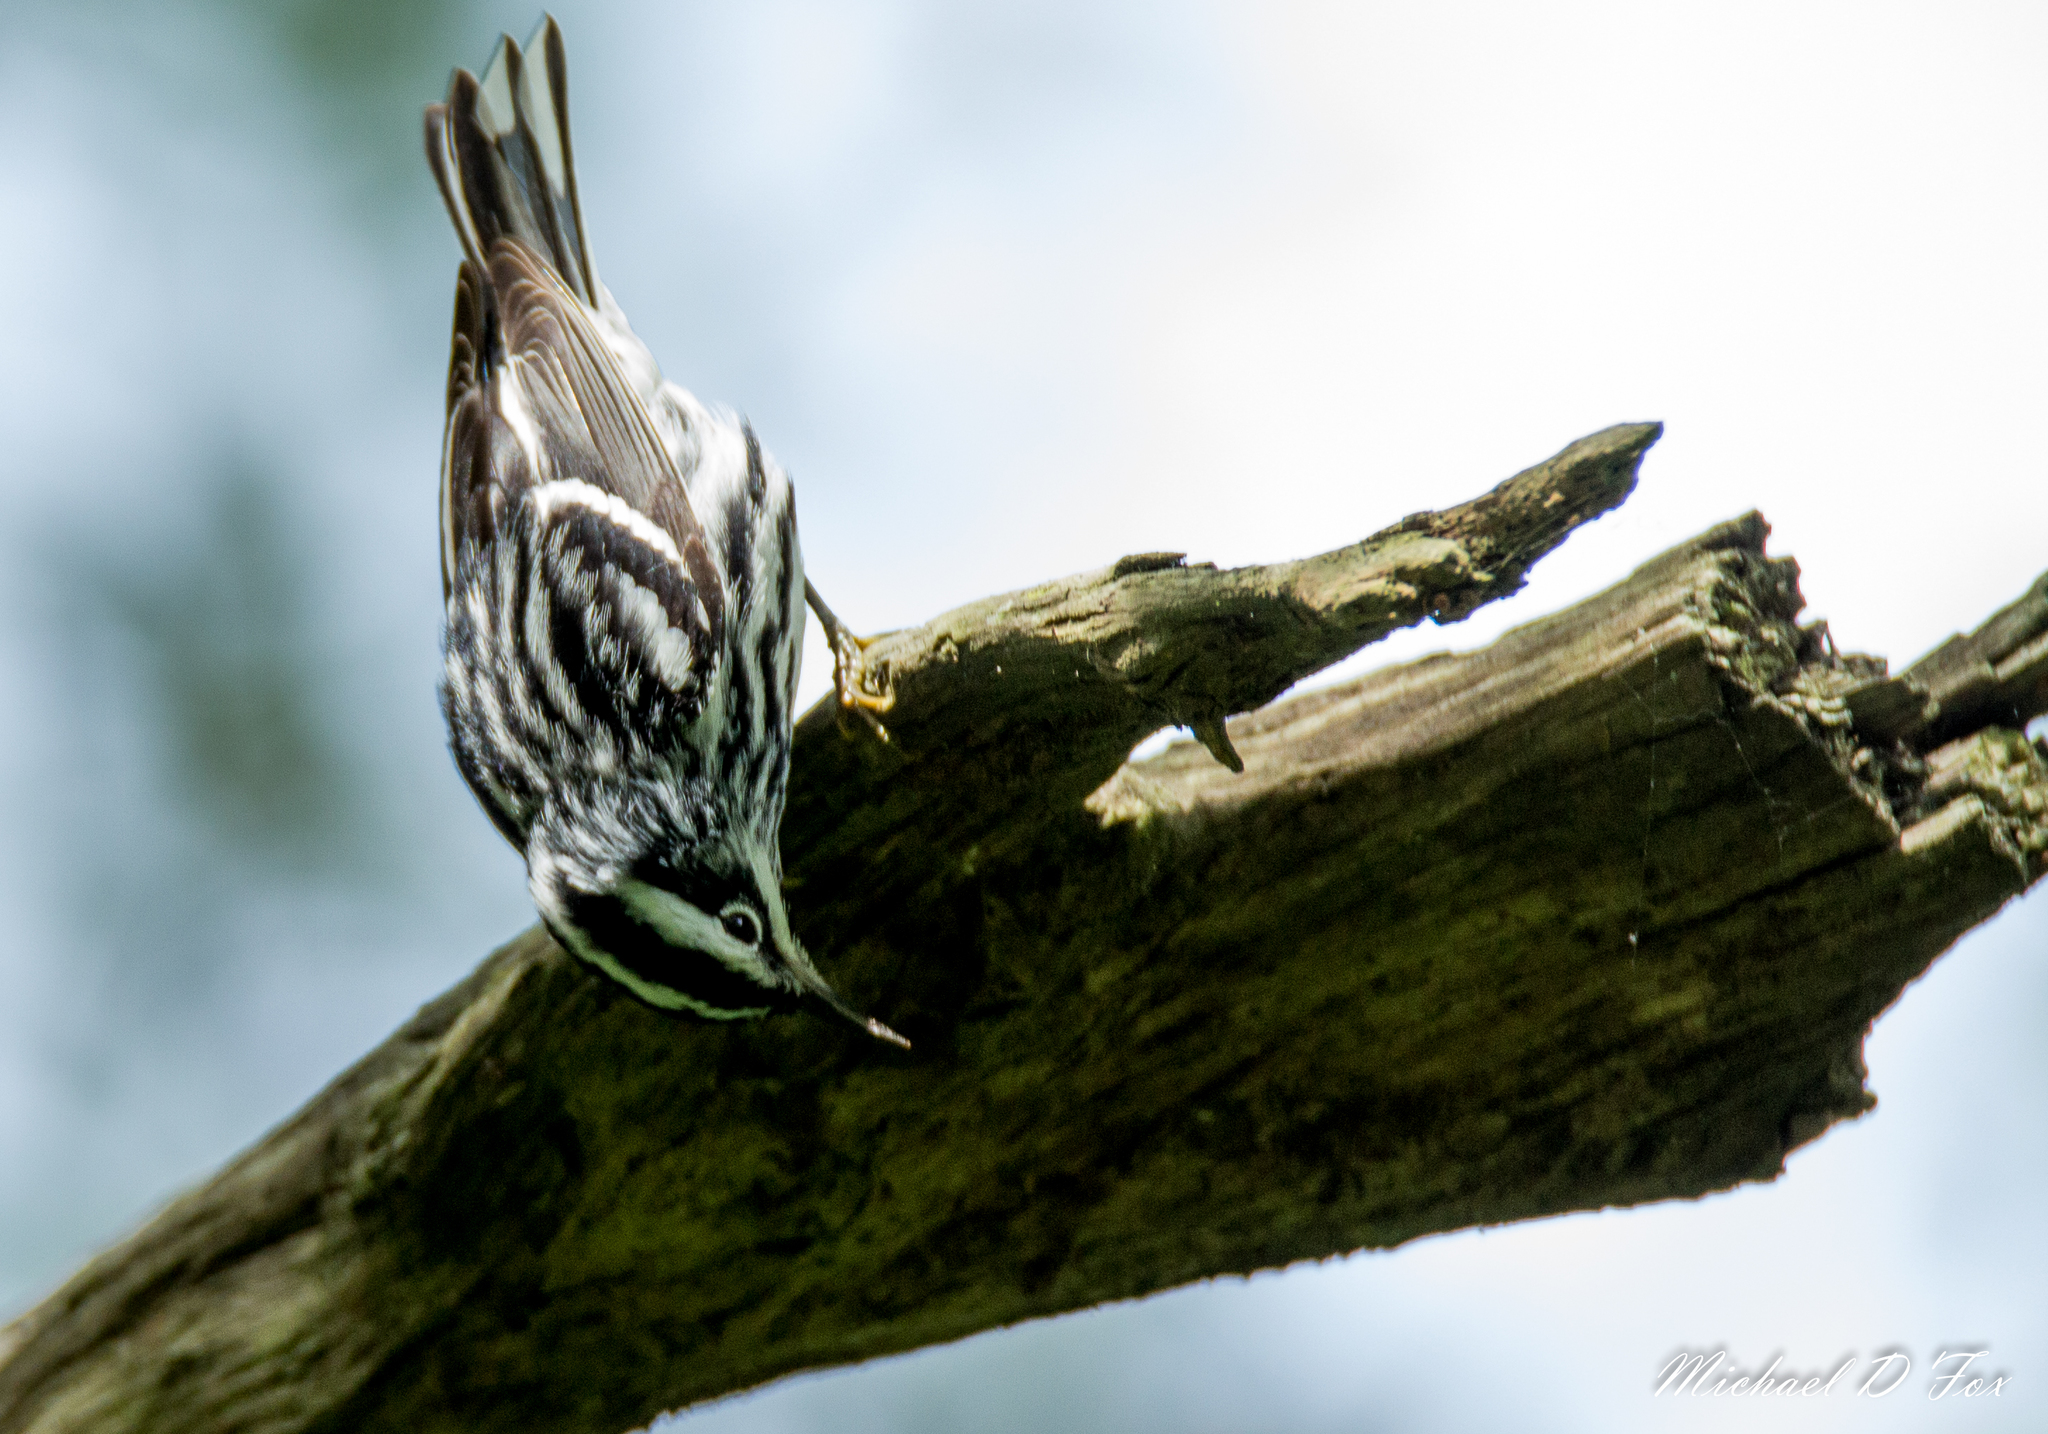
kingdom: Animalia
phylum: Chordata
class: Aves
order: Passeriformes
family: Parulidae
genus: Mniotilta
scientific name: Mniotilta varia
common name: Black-and-white warbler
